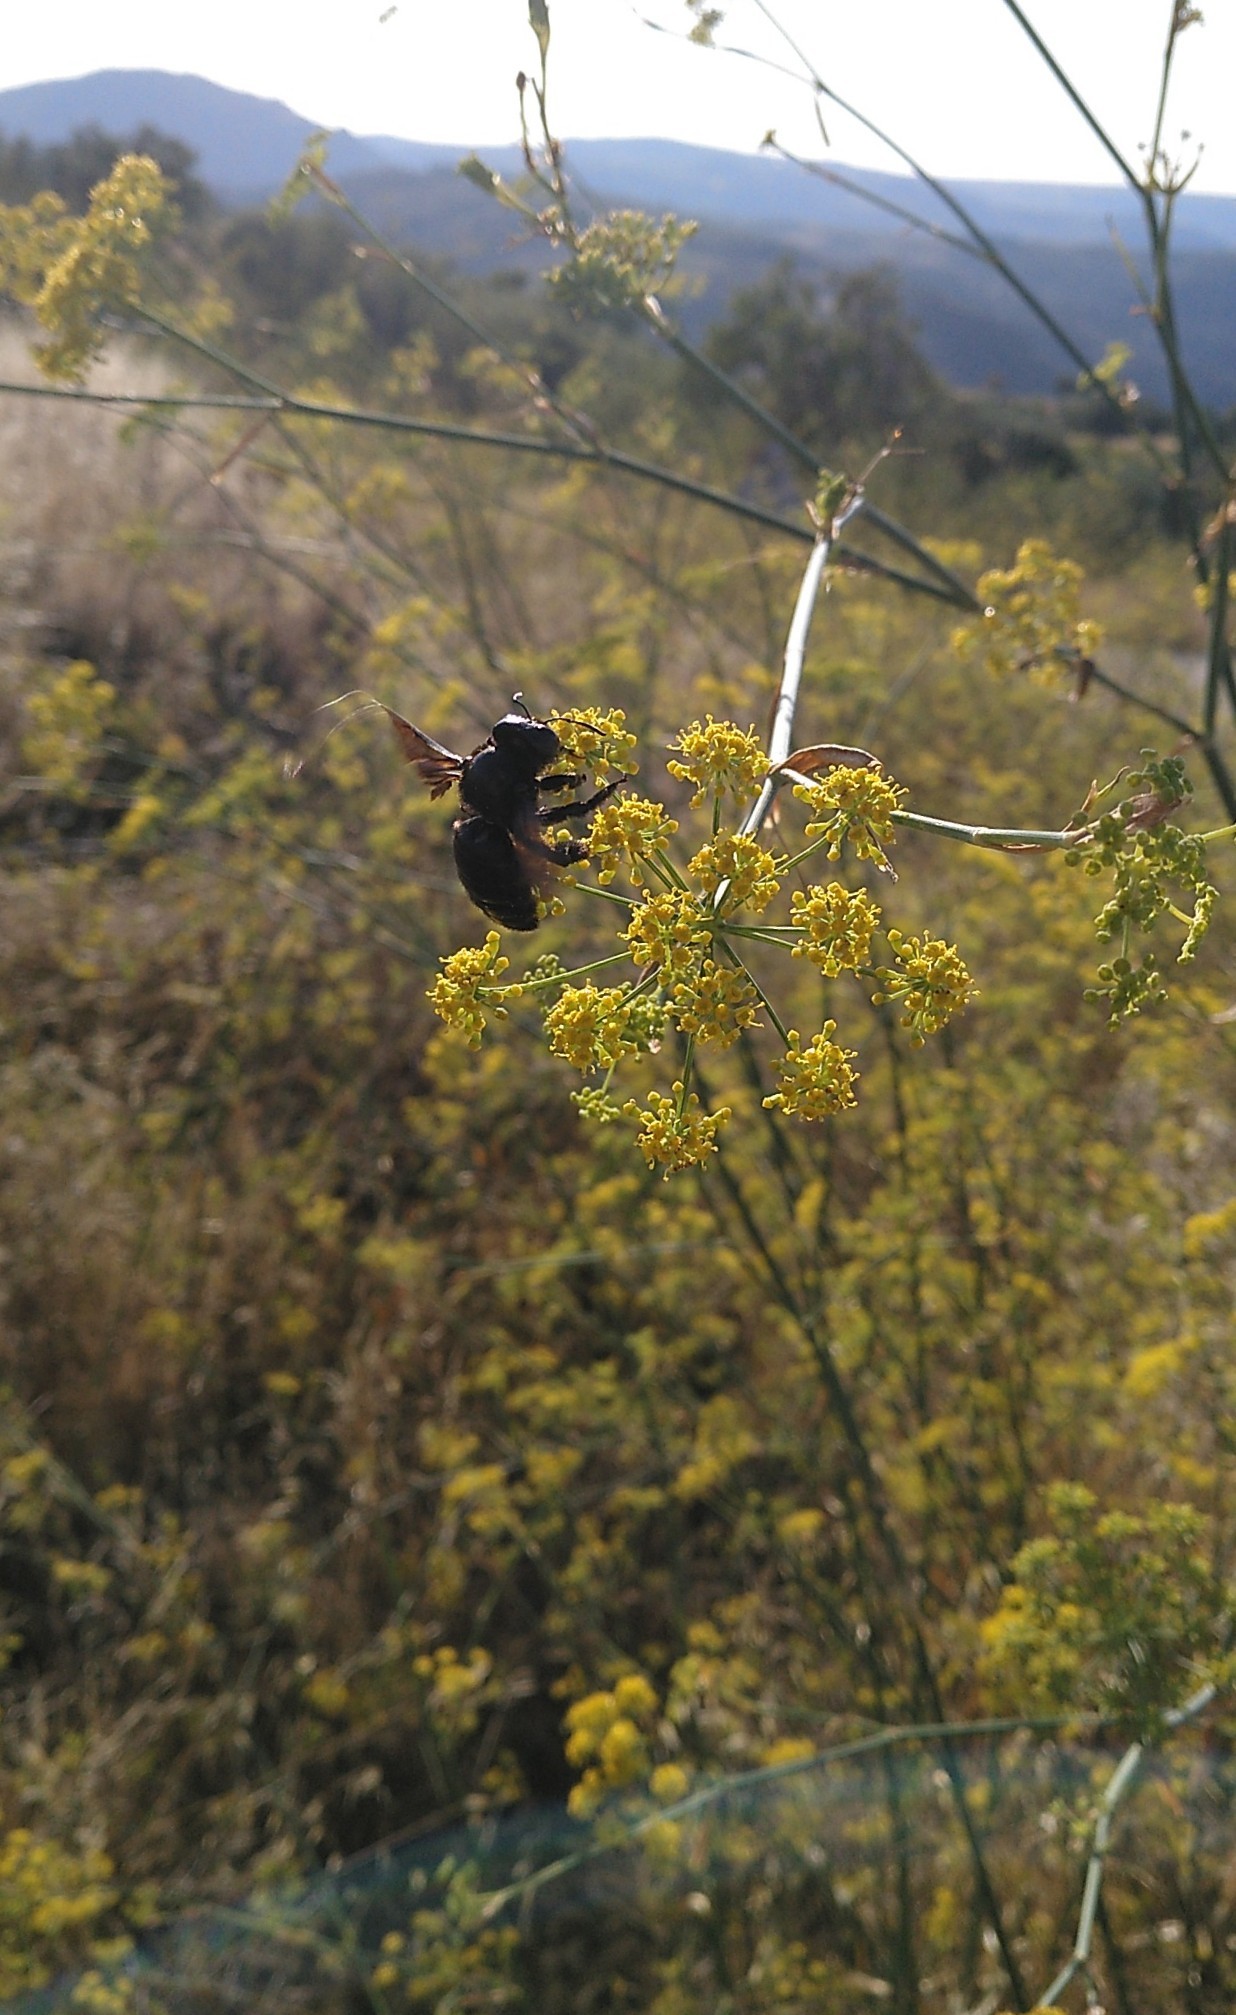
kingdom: Animalia
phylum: Arthropoda
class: Insecta
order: Hymenoptera
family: Apidae
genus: Xylocopa
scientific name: Xylocopa
